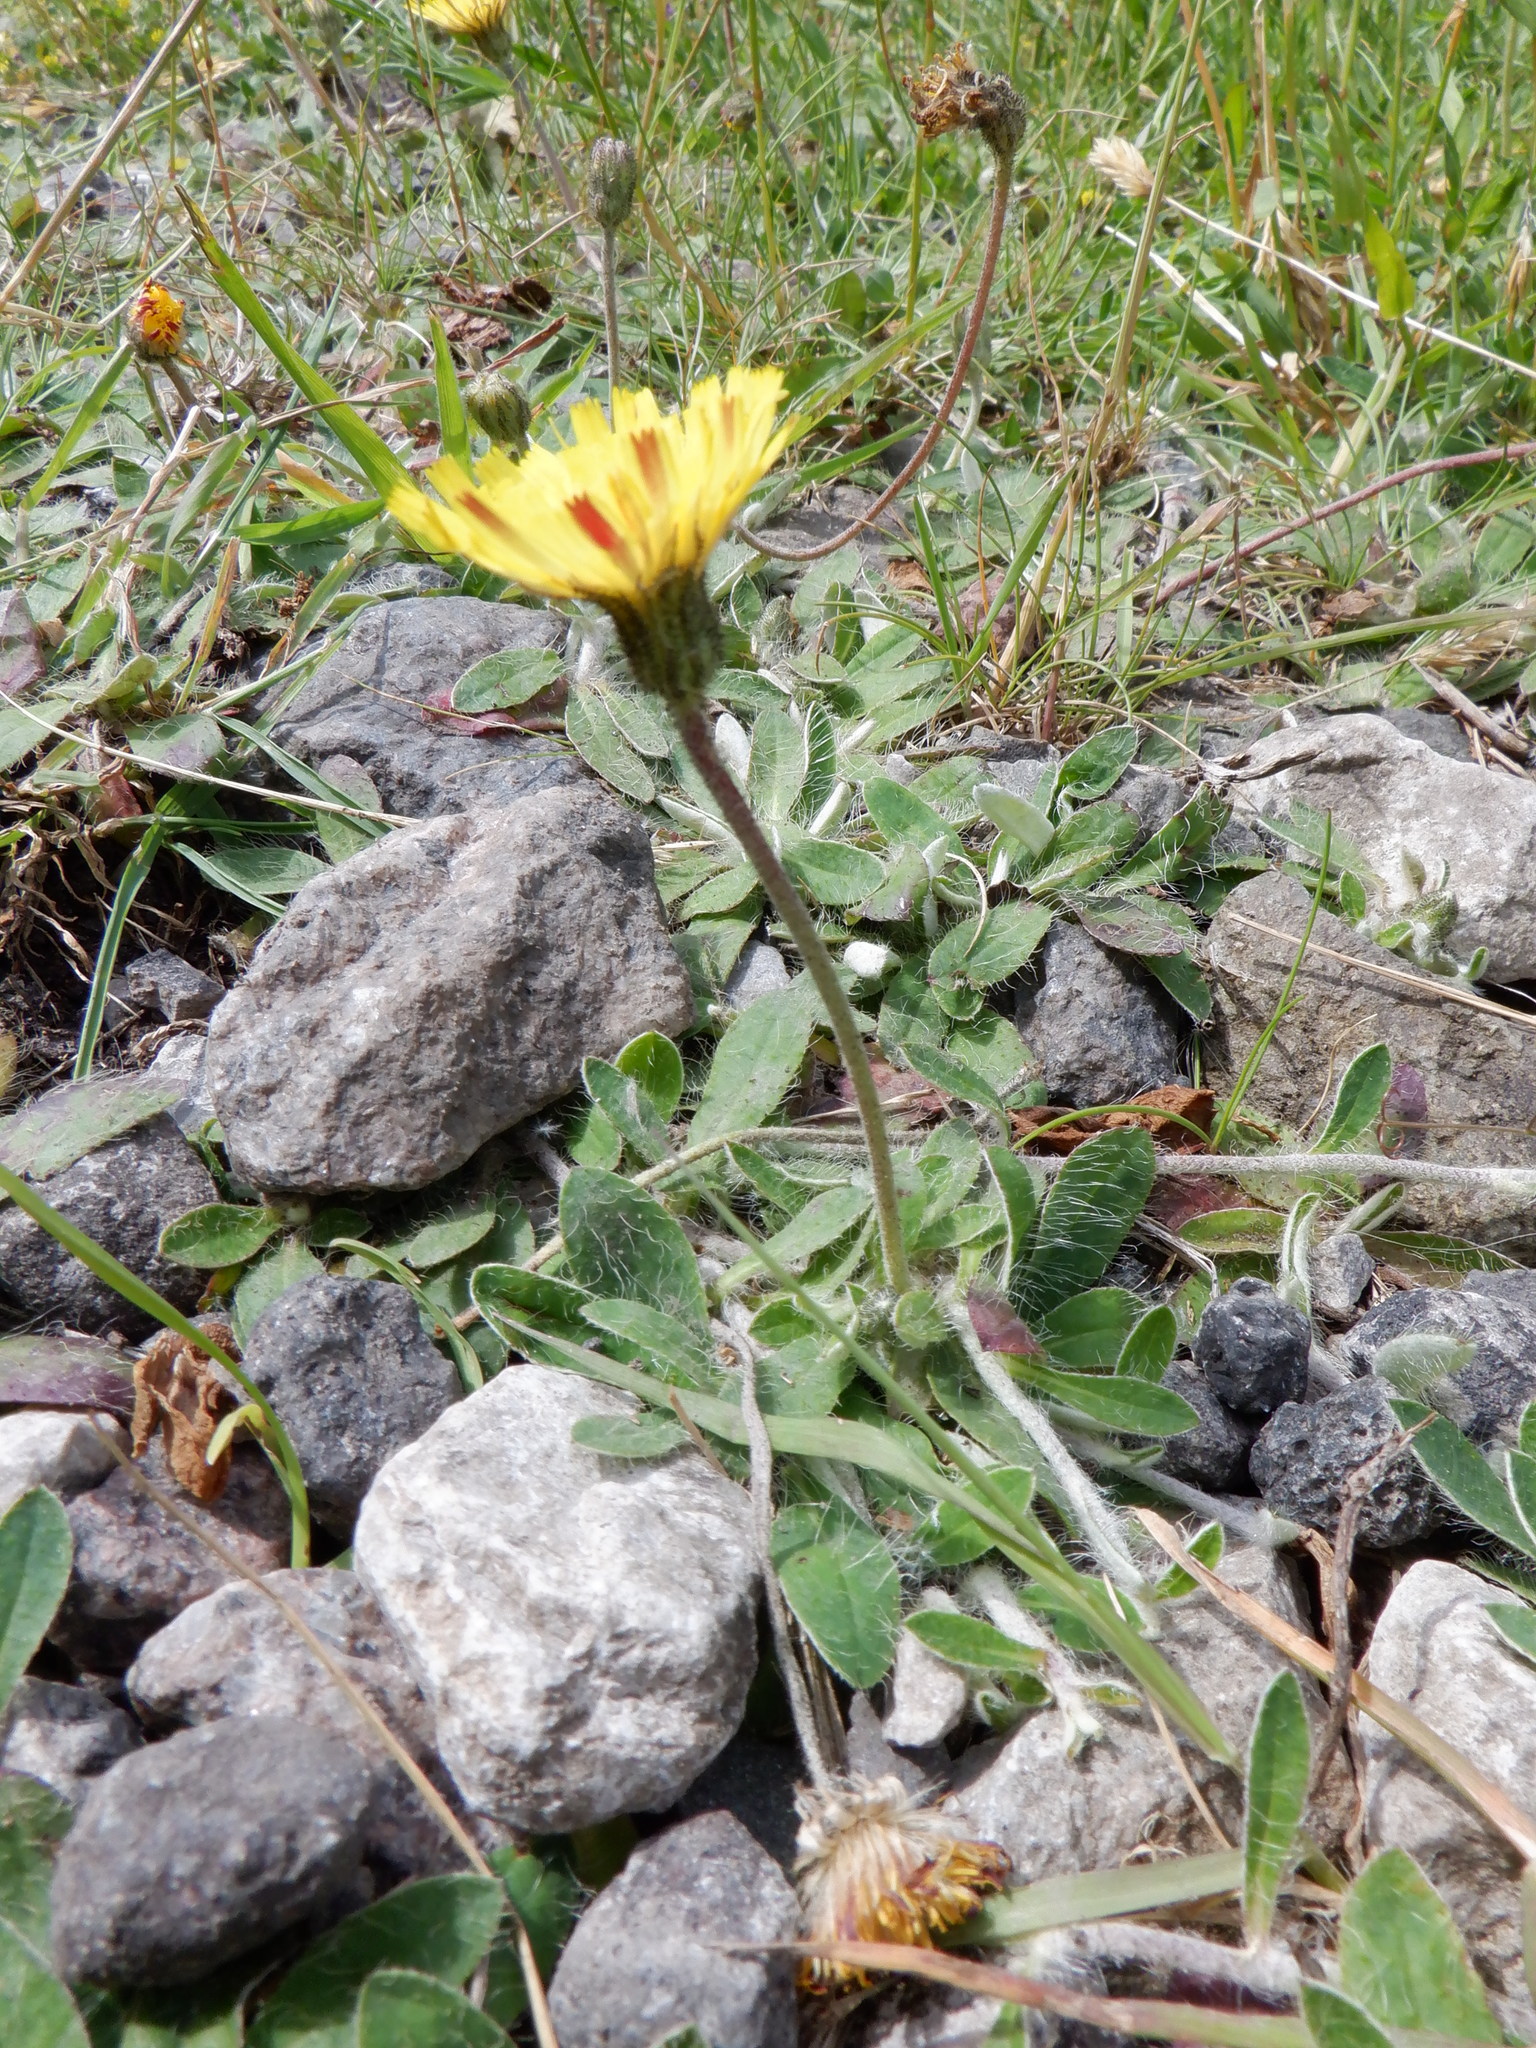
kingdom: Plantae
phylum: Tracheophyta
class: Magnoliopsida
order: Asterales
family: Asteraceae
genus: Pilosella
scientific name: Pilosella officinarum
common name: Mouse-ear hawkweed
